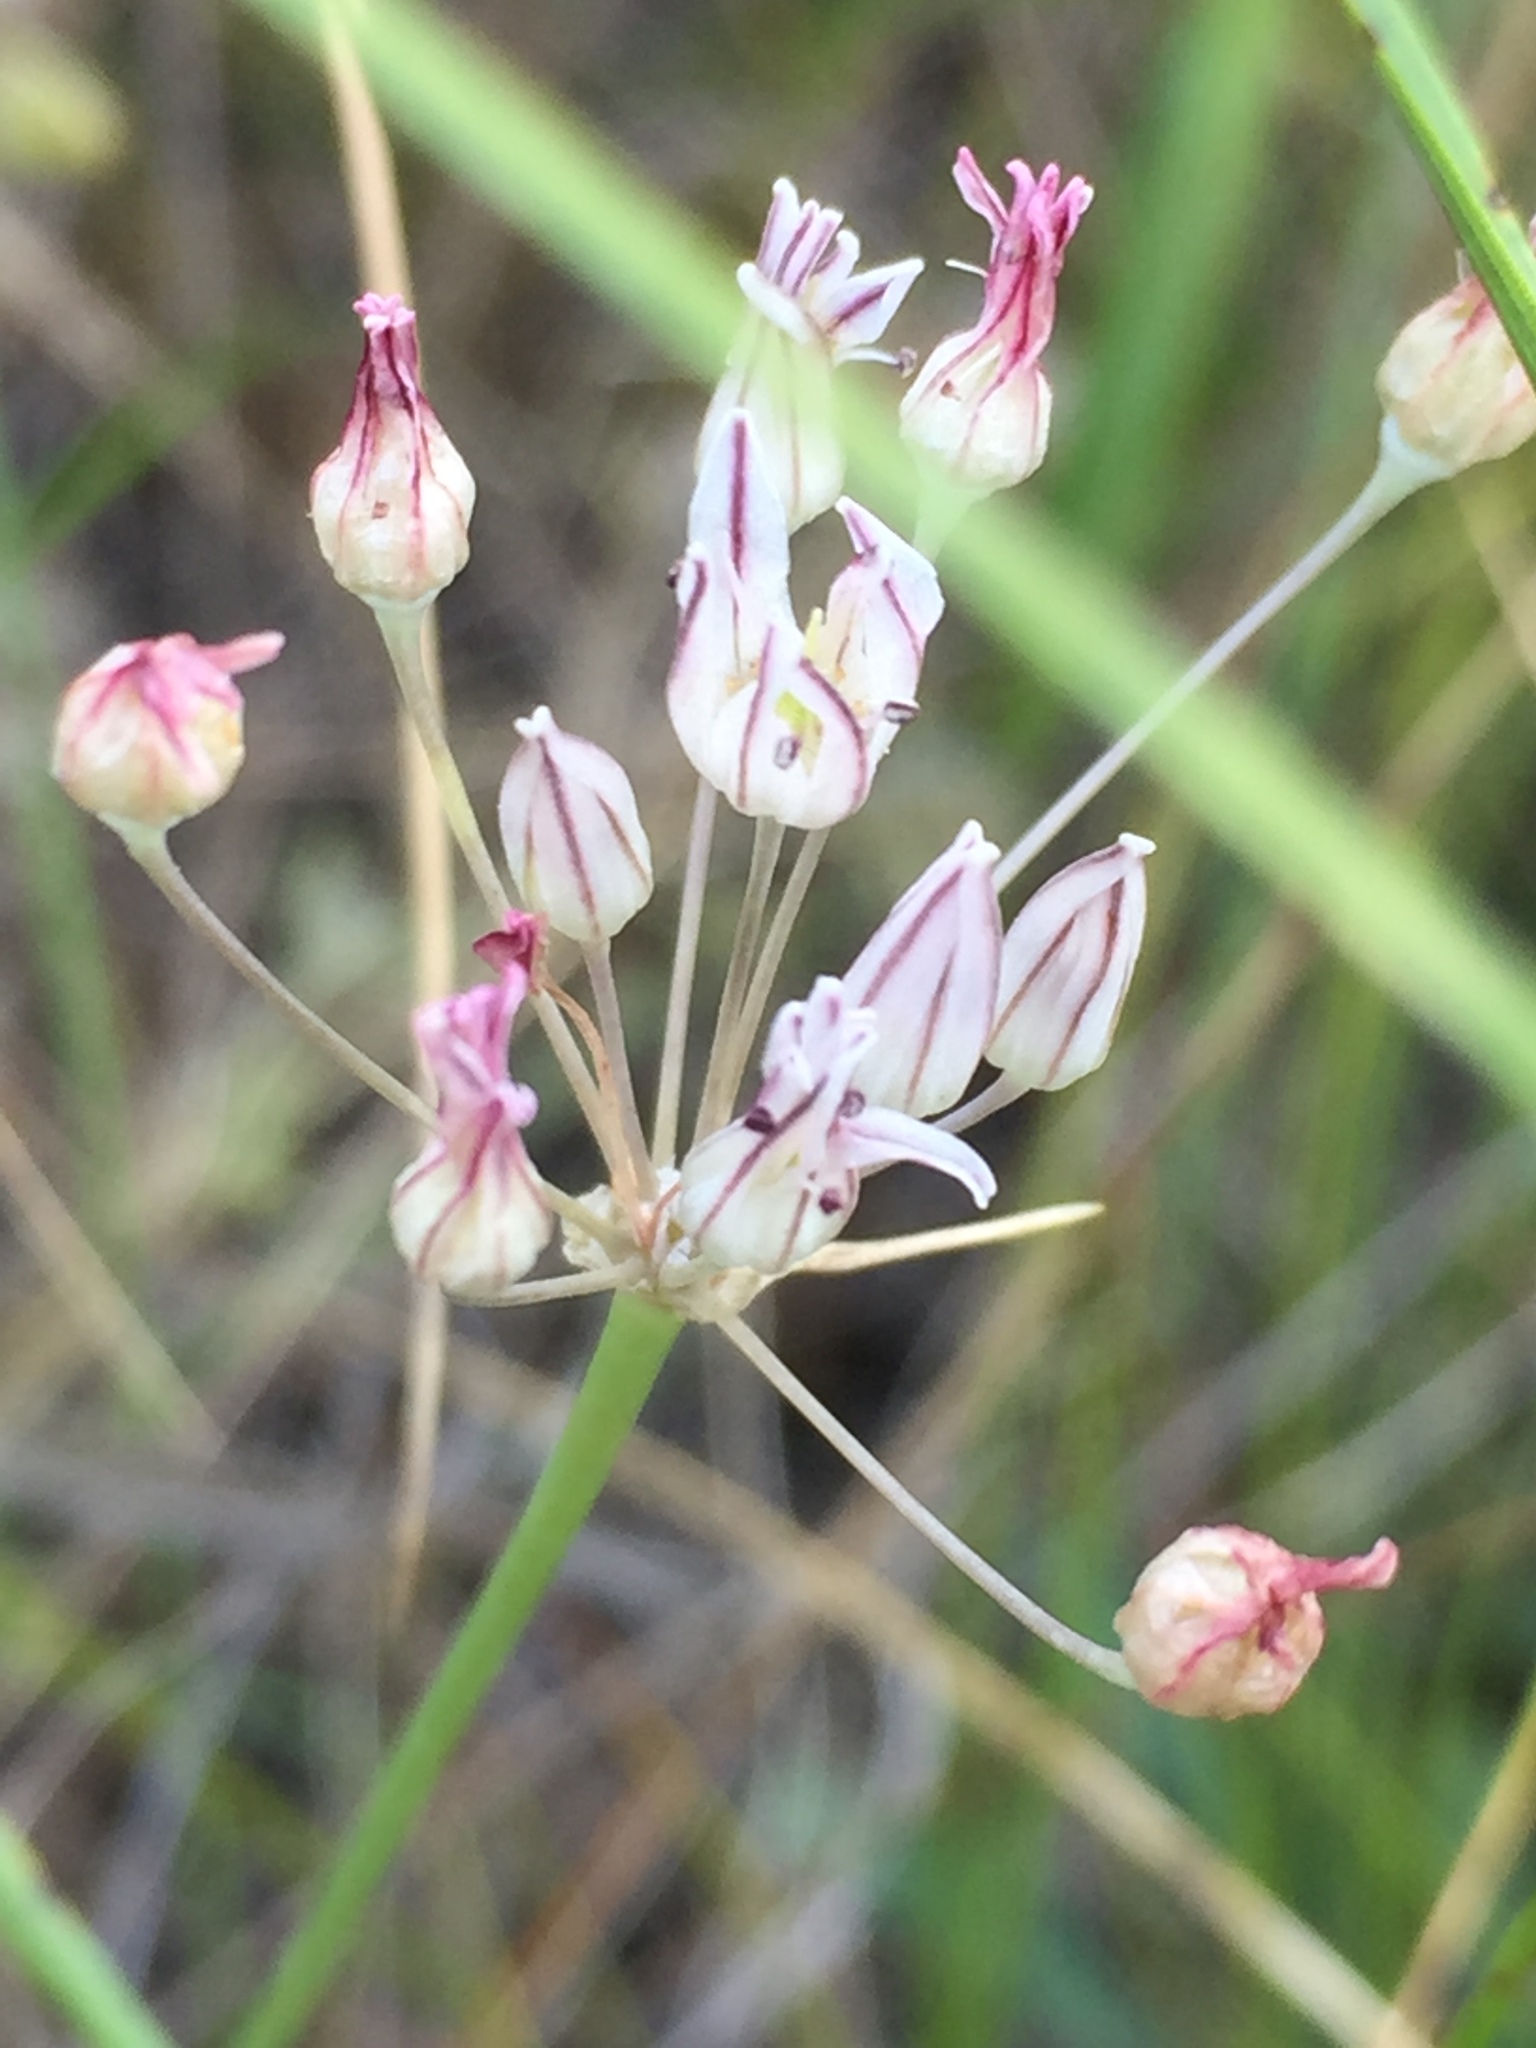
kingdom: Plantae
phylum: Tracheophyta
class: Liliopsida
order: Asparagales
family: Amaryllidaceae
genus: Allium
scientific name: Allium inaequale
